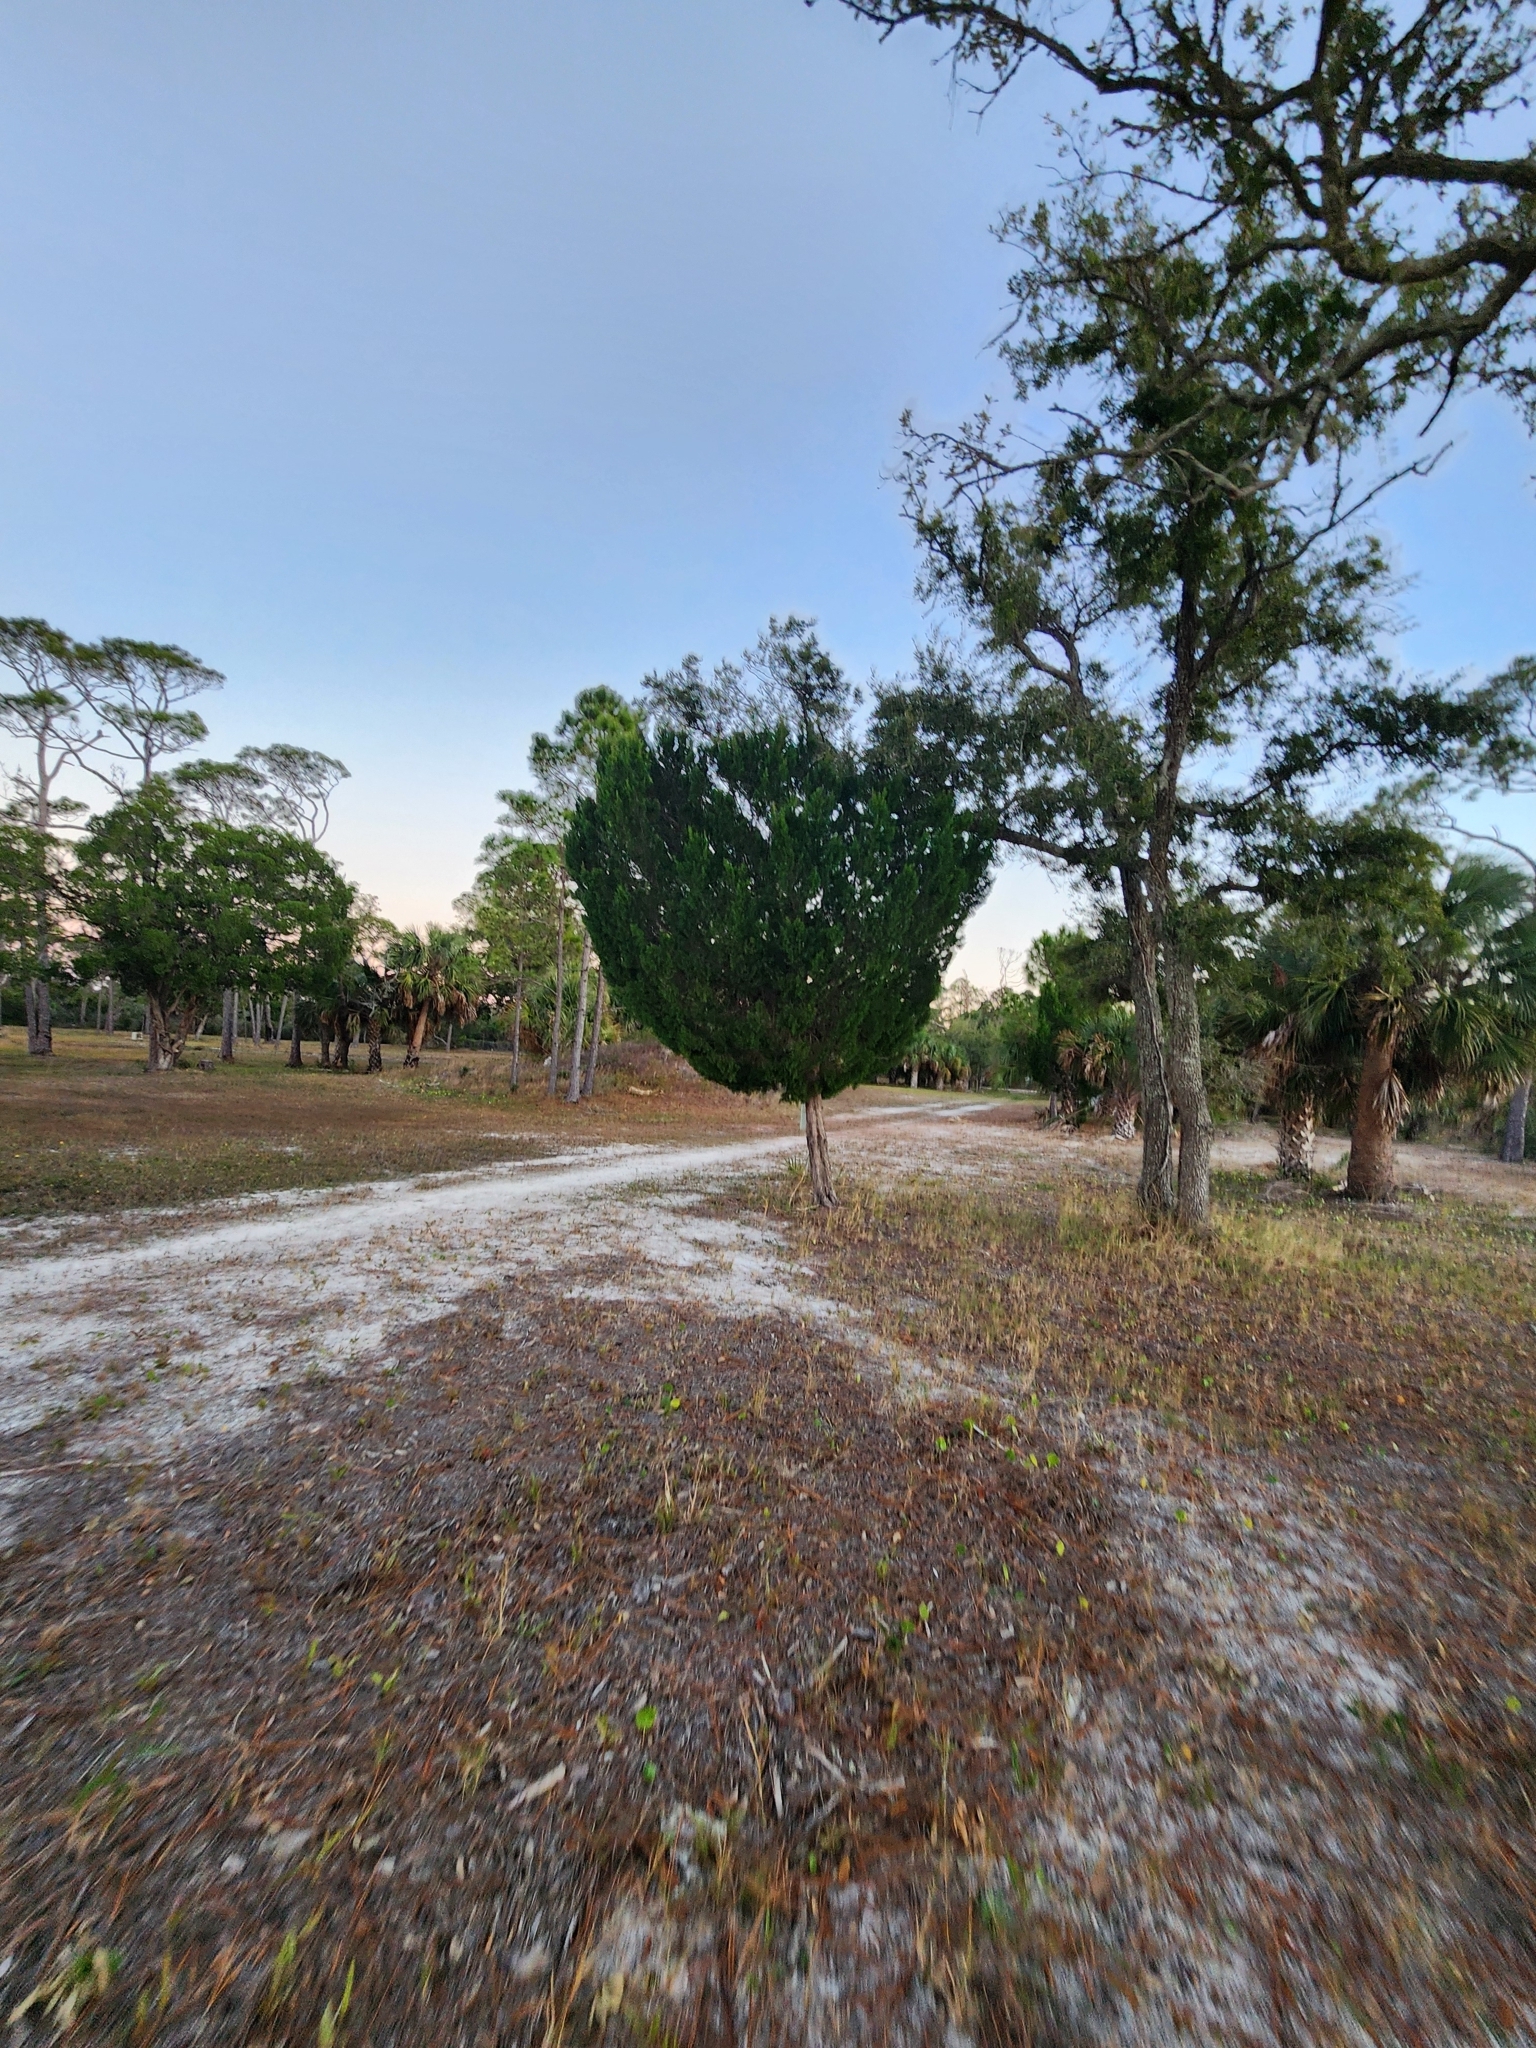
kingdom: Plantae
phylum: Tracheophyta
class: Pinopsida
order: Pinales
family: Cupressaceae
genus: Juniperus
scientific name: Juniperus virginiana
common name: Red juniper
